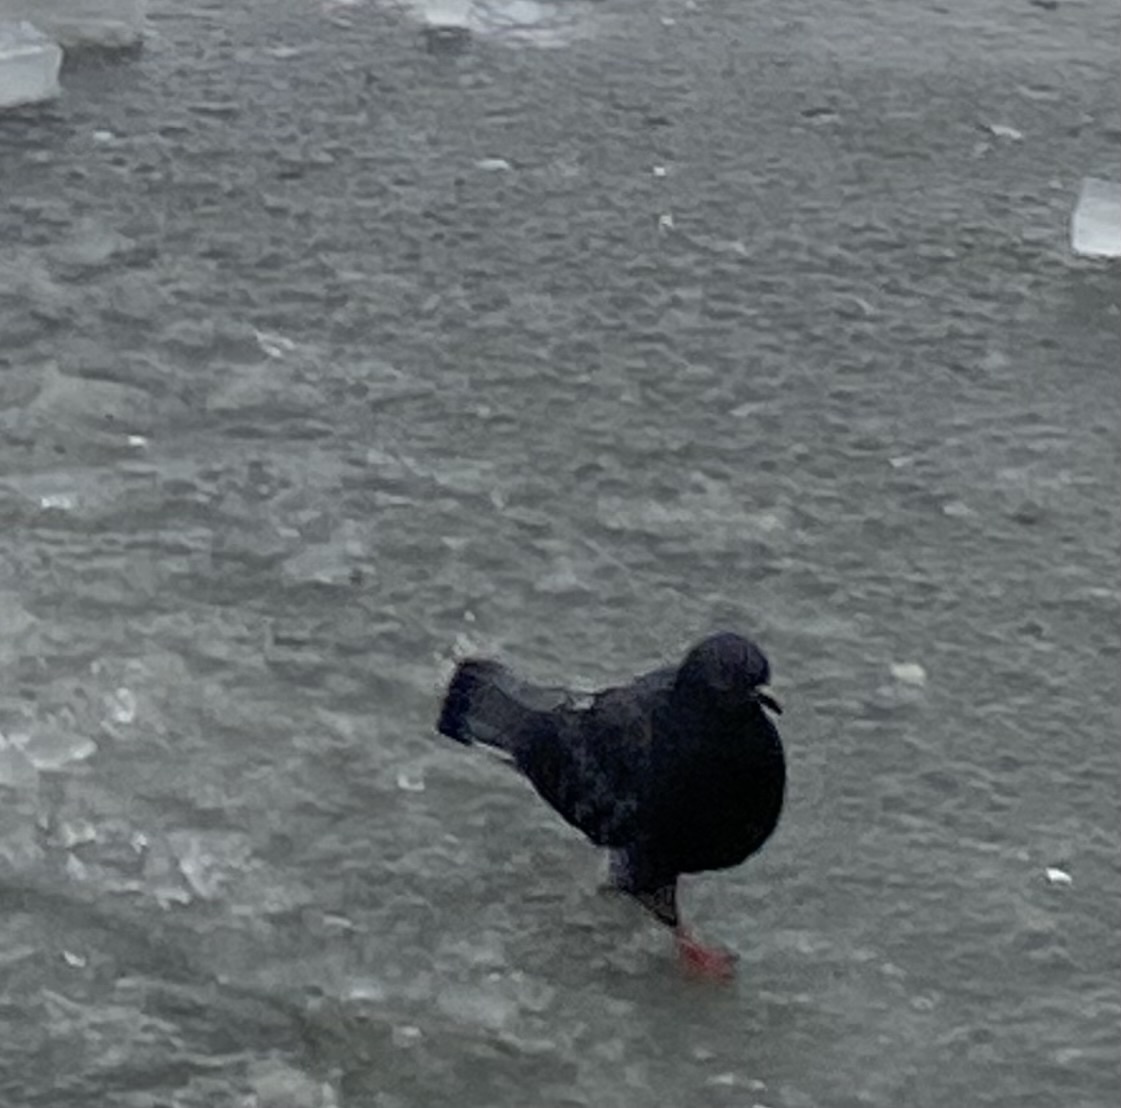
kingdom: Animalia
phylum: Chordata
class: Aves
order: Columbiformes
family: Columbidae
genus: Columba
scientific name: Columba livia
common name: Rock pigeon
